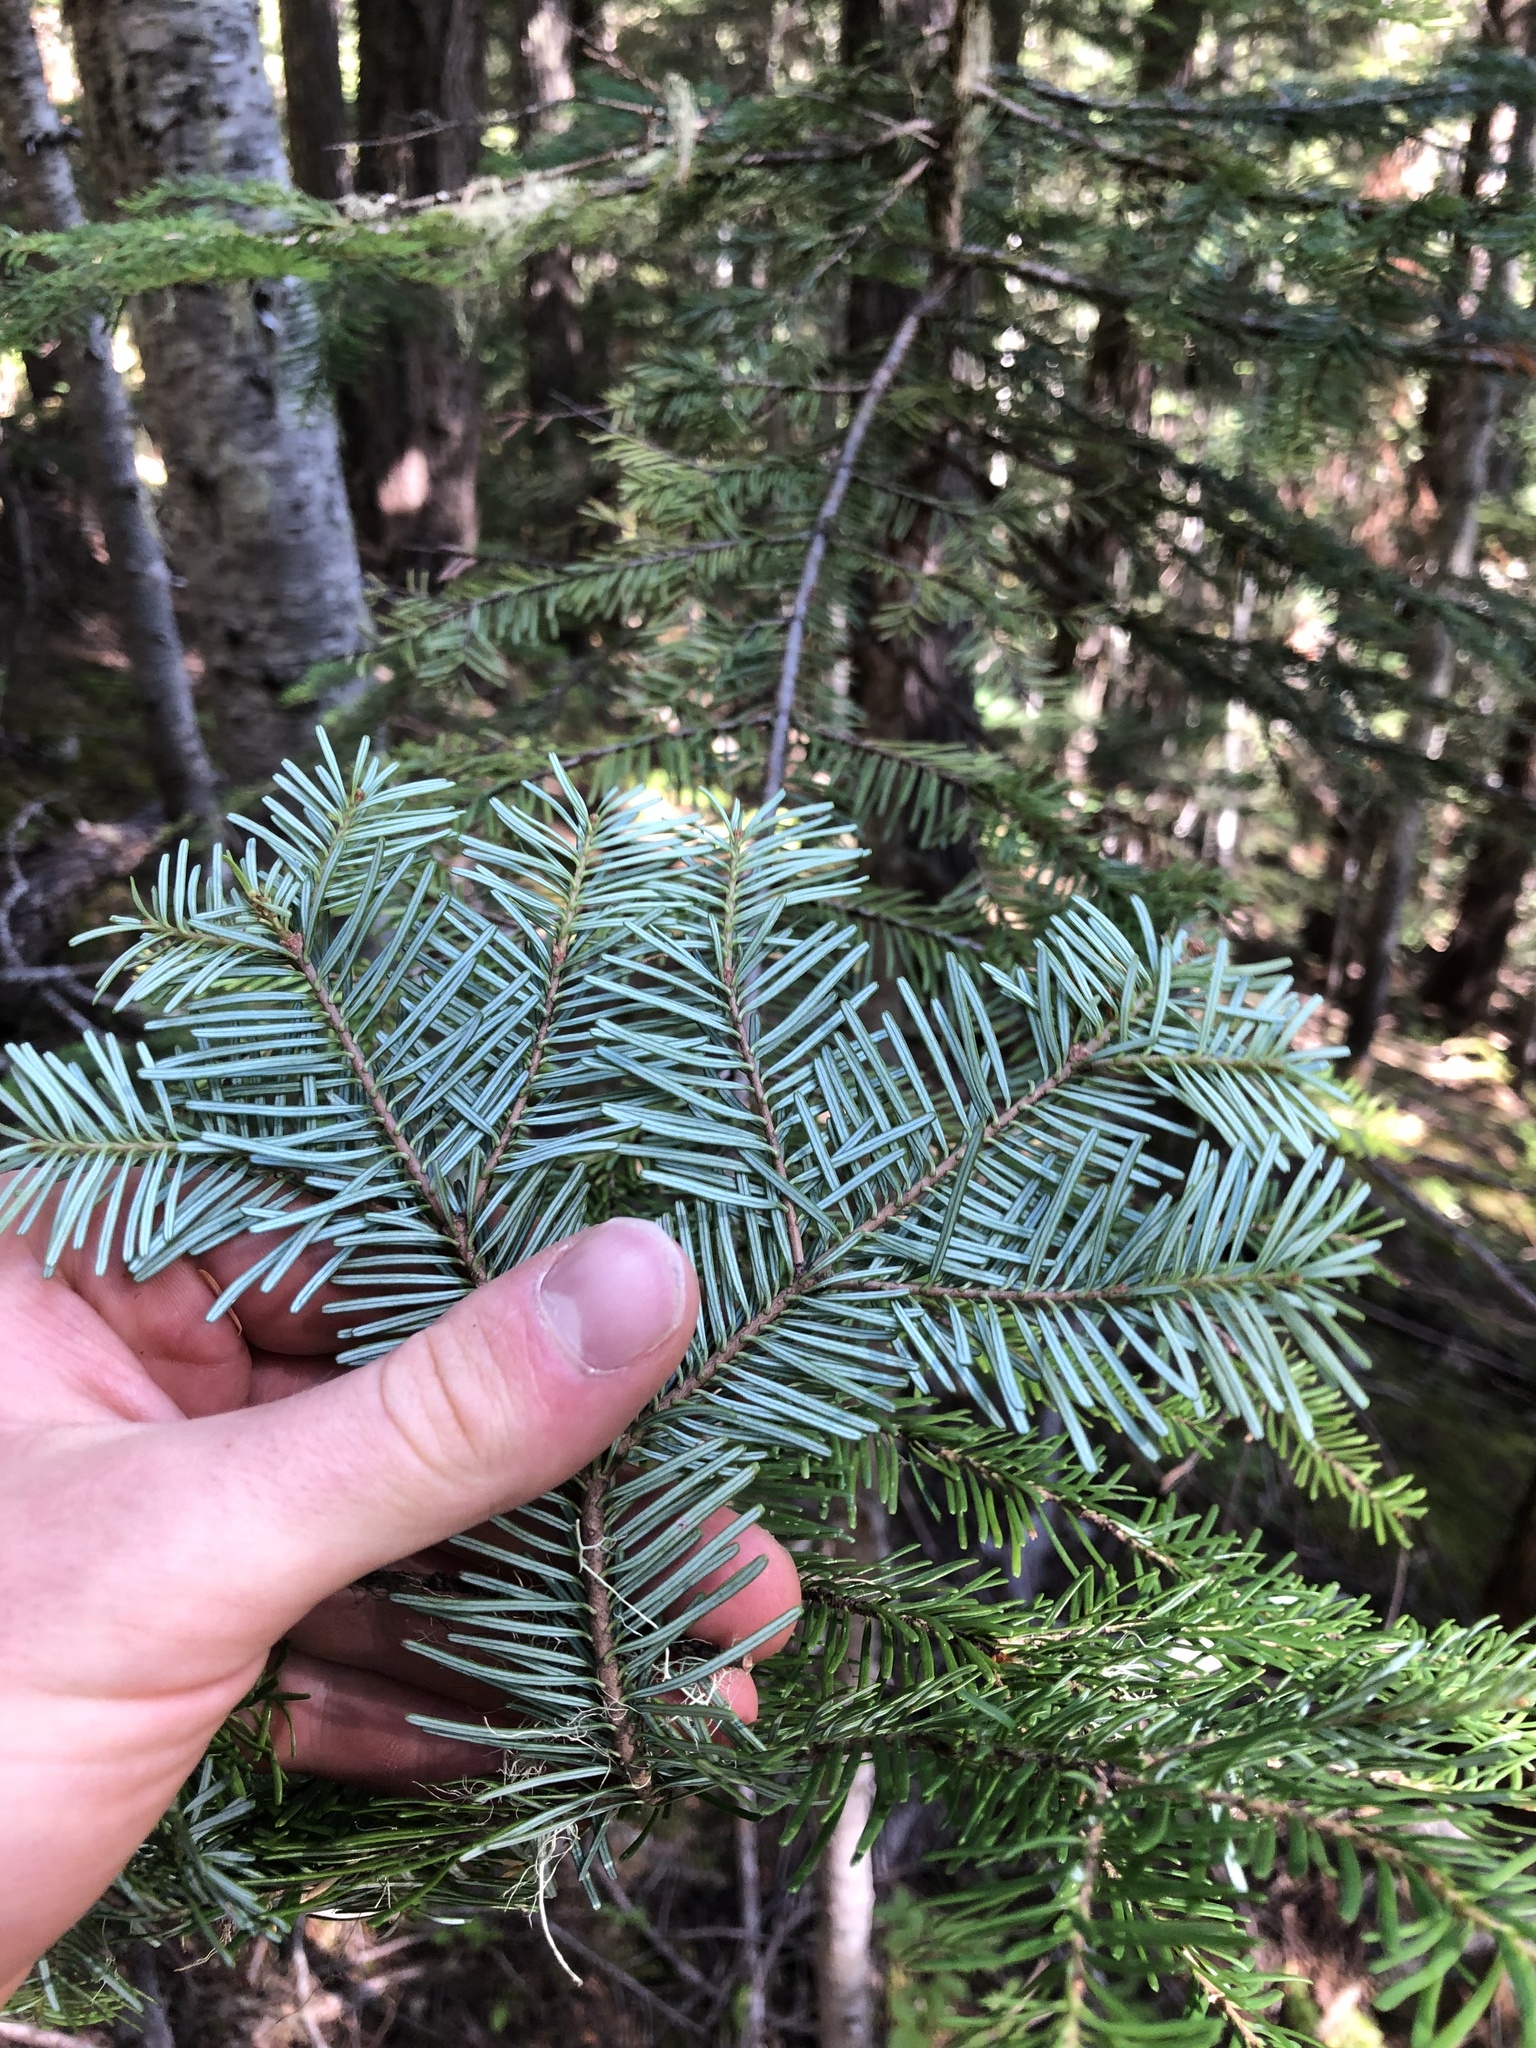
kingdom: Plantae
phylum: Tracheophyta
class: Pinopsida
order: Pinales
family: Pinaceae
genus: Abies
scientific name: Abies amabilis
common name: Pacific silver fir
